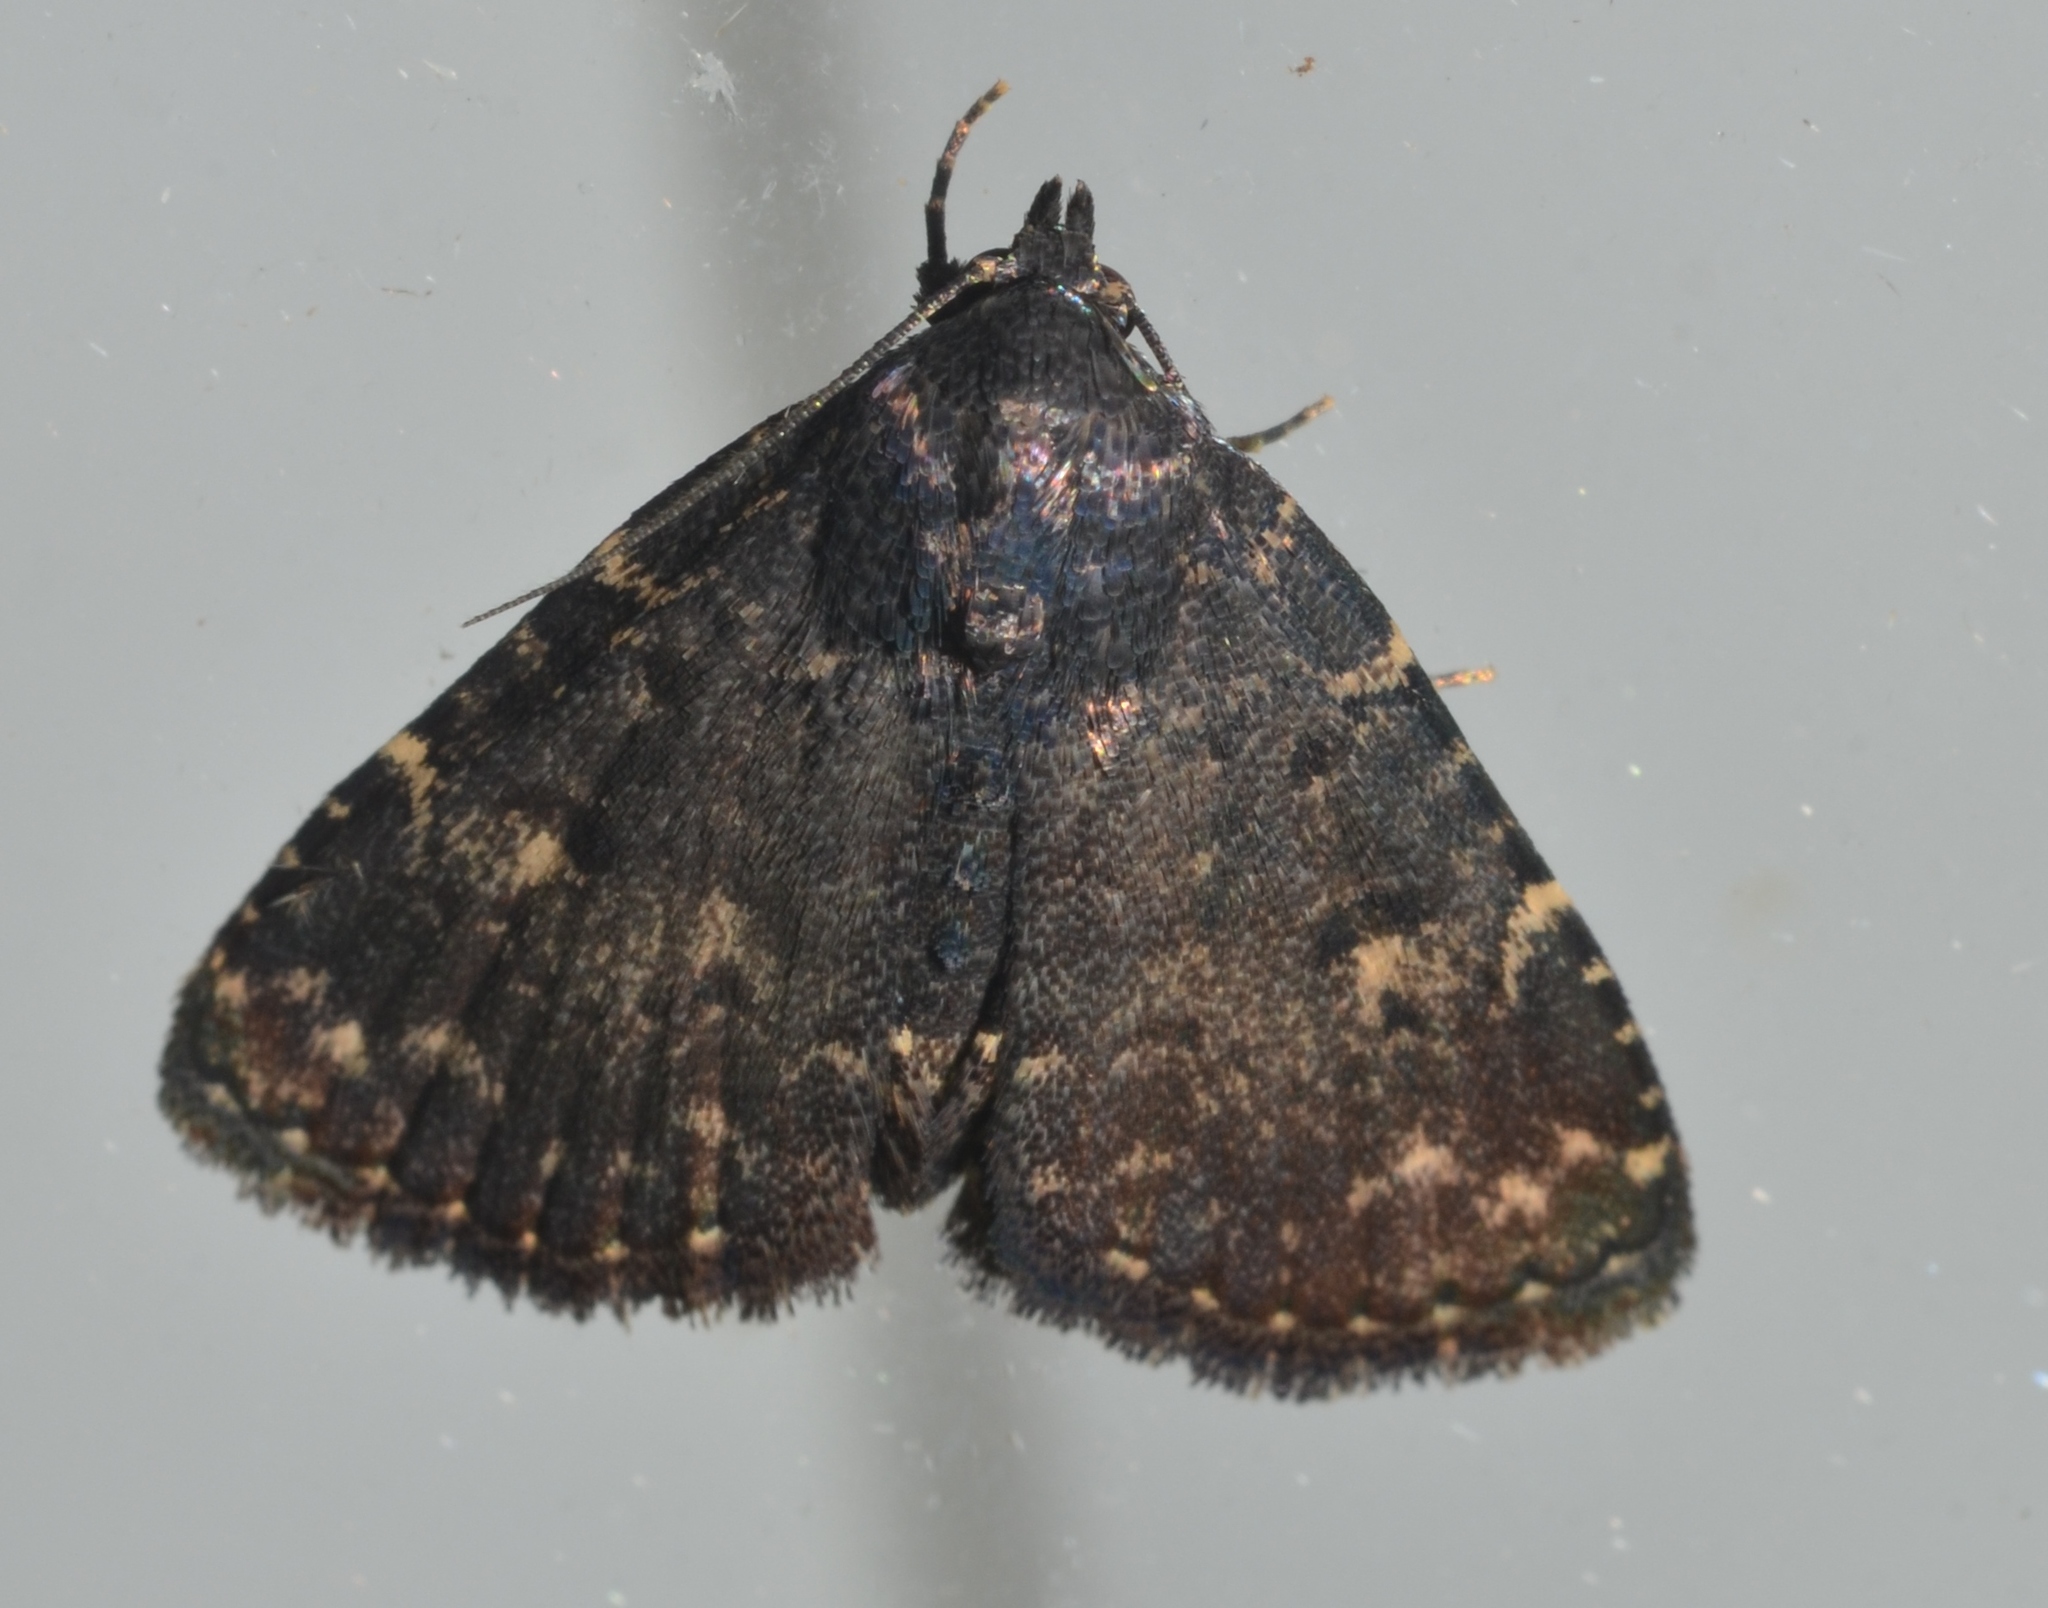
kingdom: Animalia
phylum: Arthropoda
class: Insecta
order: Lepidoptera
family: Erebidae
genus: Metalectra
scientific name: Metalectra tantillus
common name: Black fungus moth
